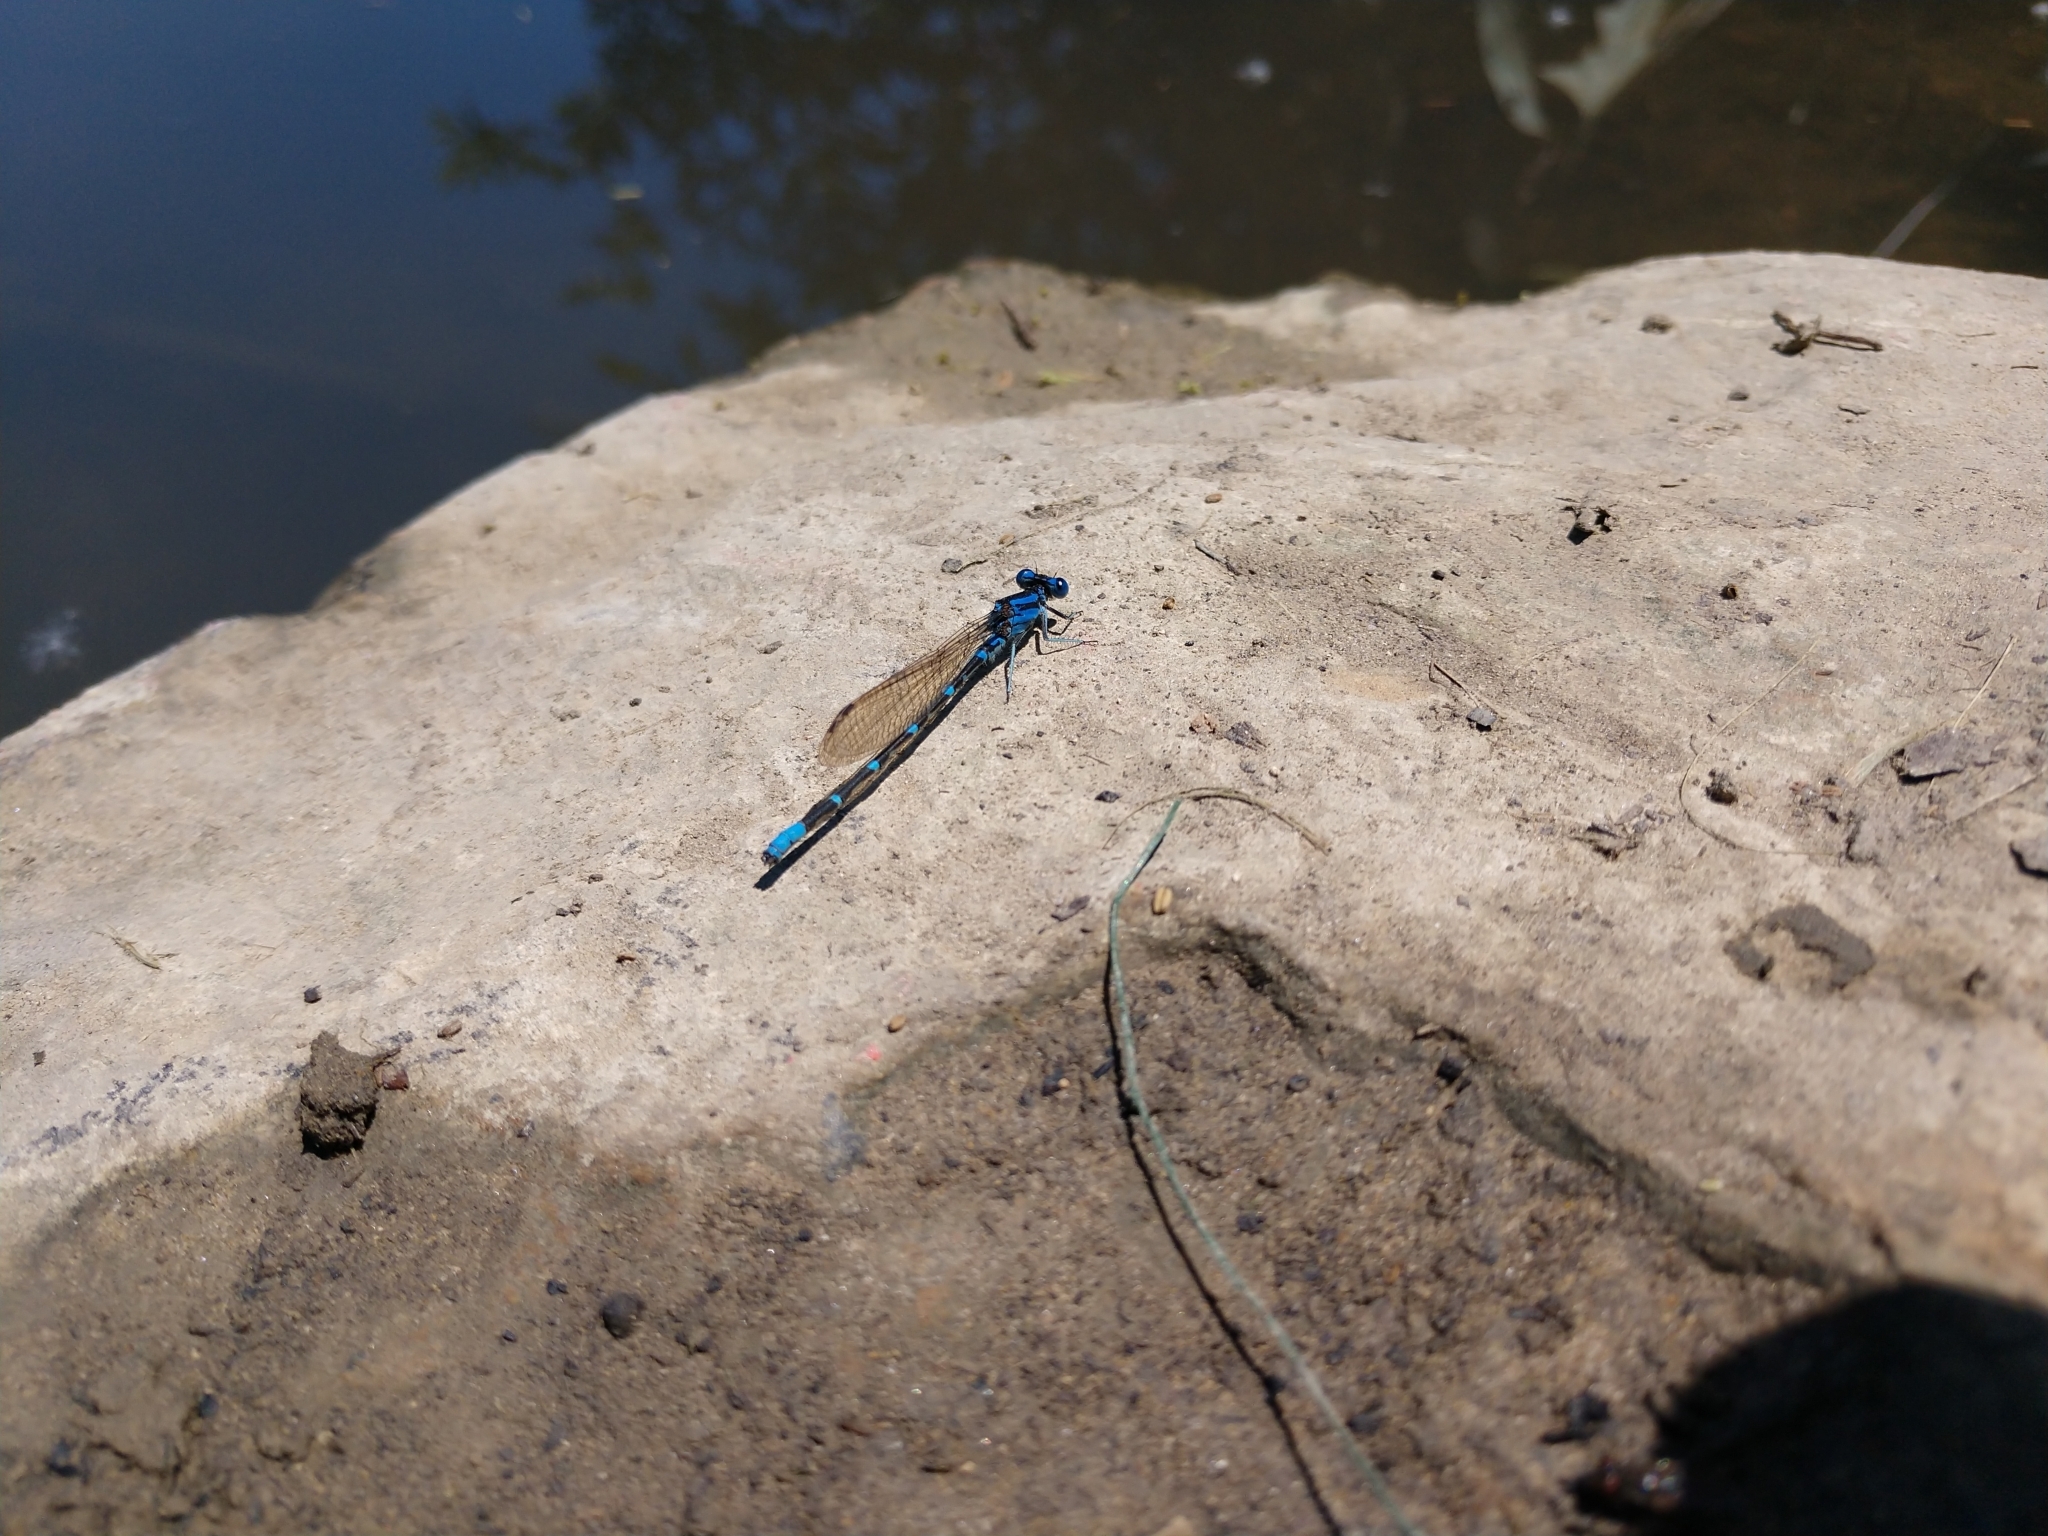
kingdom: Animalia
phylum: Arthropoda
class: Insecta
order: Odonata
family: Coenagrionidae
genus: Argia
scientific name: Argia sedula
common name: Blue-ringed dancer
